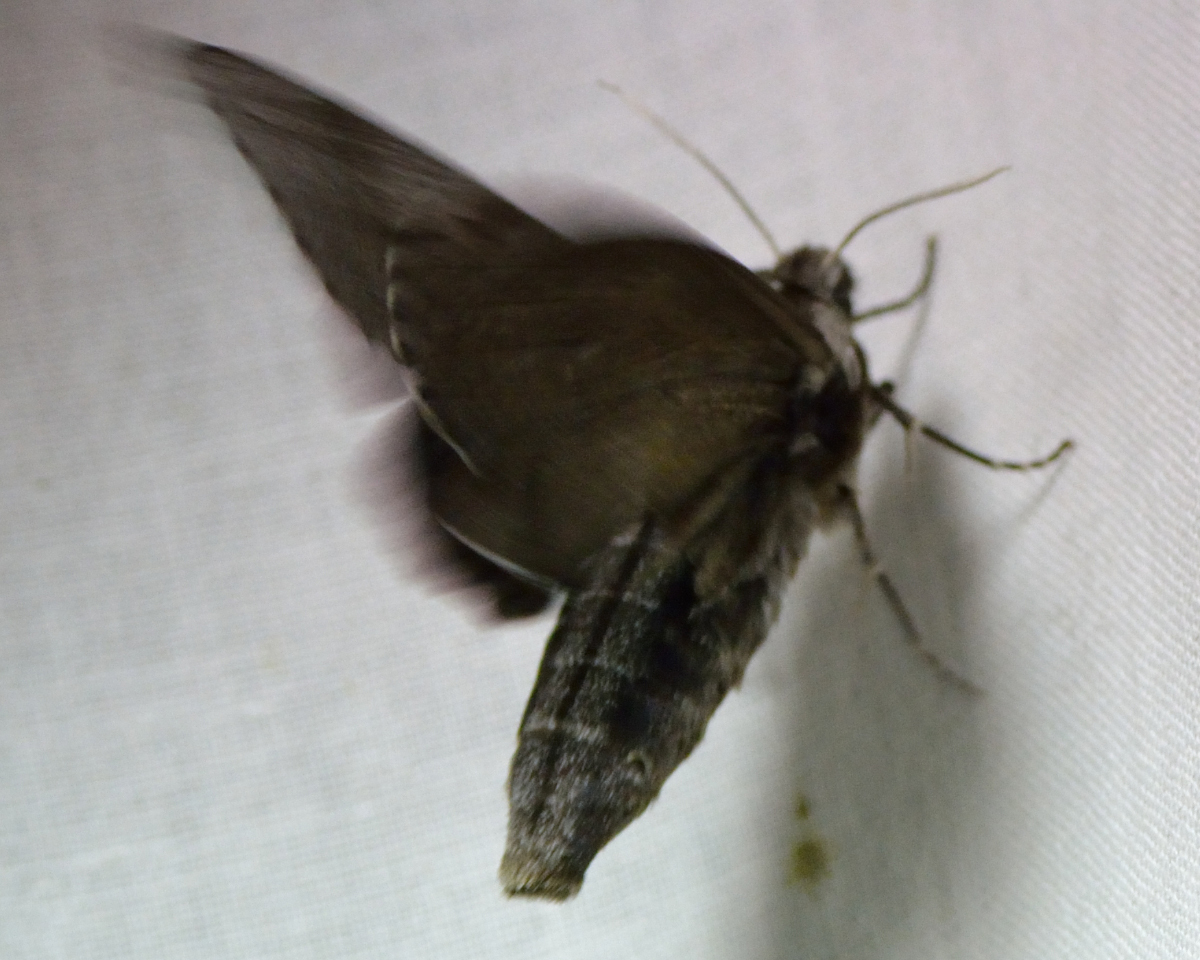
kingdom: Animalia
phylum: Arthropoda
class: Insecta
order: Lepidoptera
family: Sphingidae
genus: Sphinx
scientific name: Sphinx pinastri
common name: Pine hawk-moth
